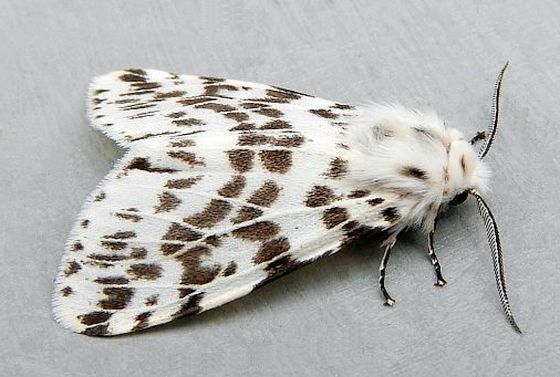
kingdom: Animalia
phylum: Arthropoda
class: Insecta
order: Lepidoptera
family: Erebidae
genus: Hyphantria
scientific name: Hyphantria cunea
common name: American white moth
